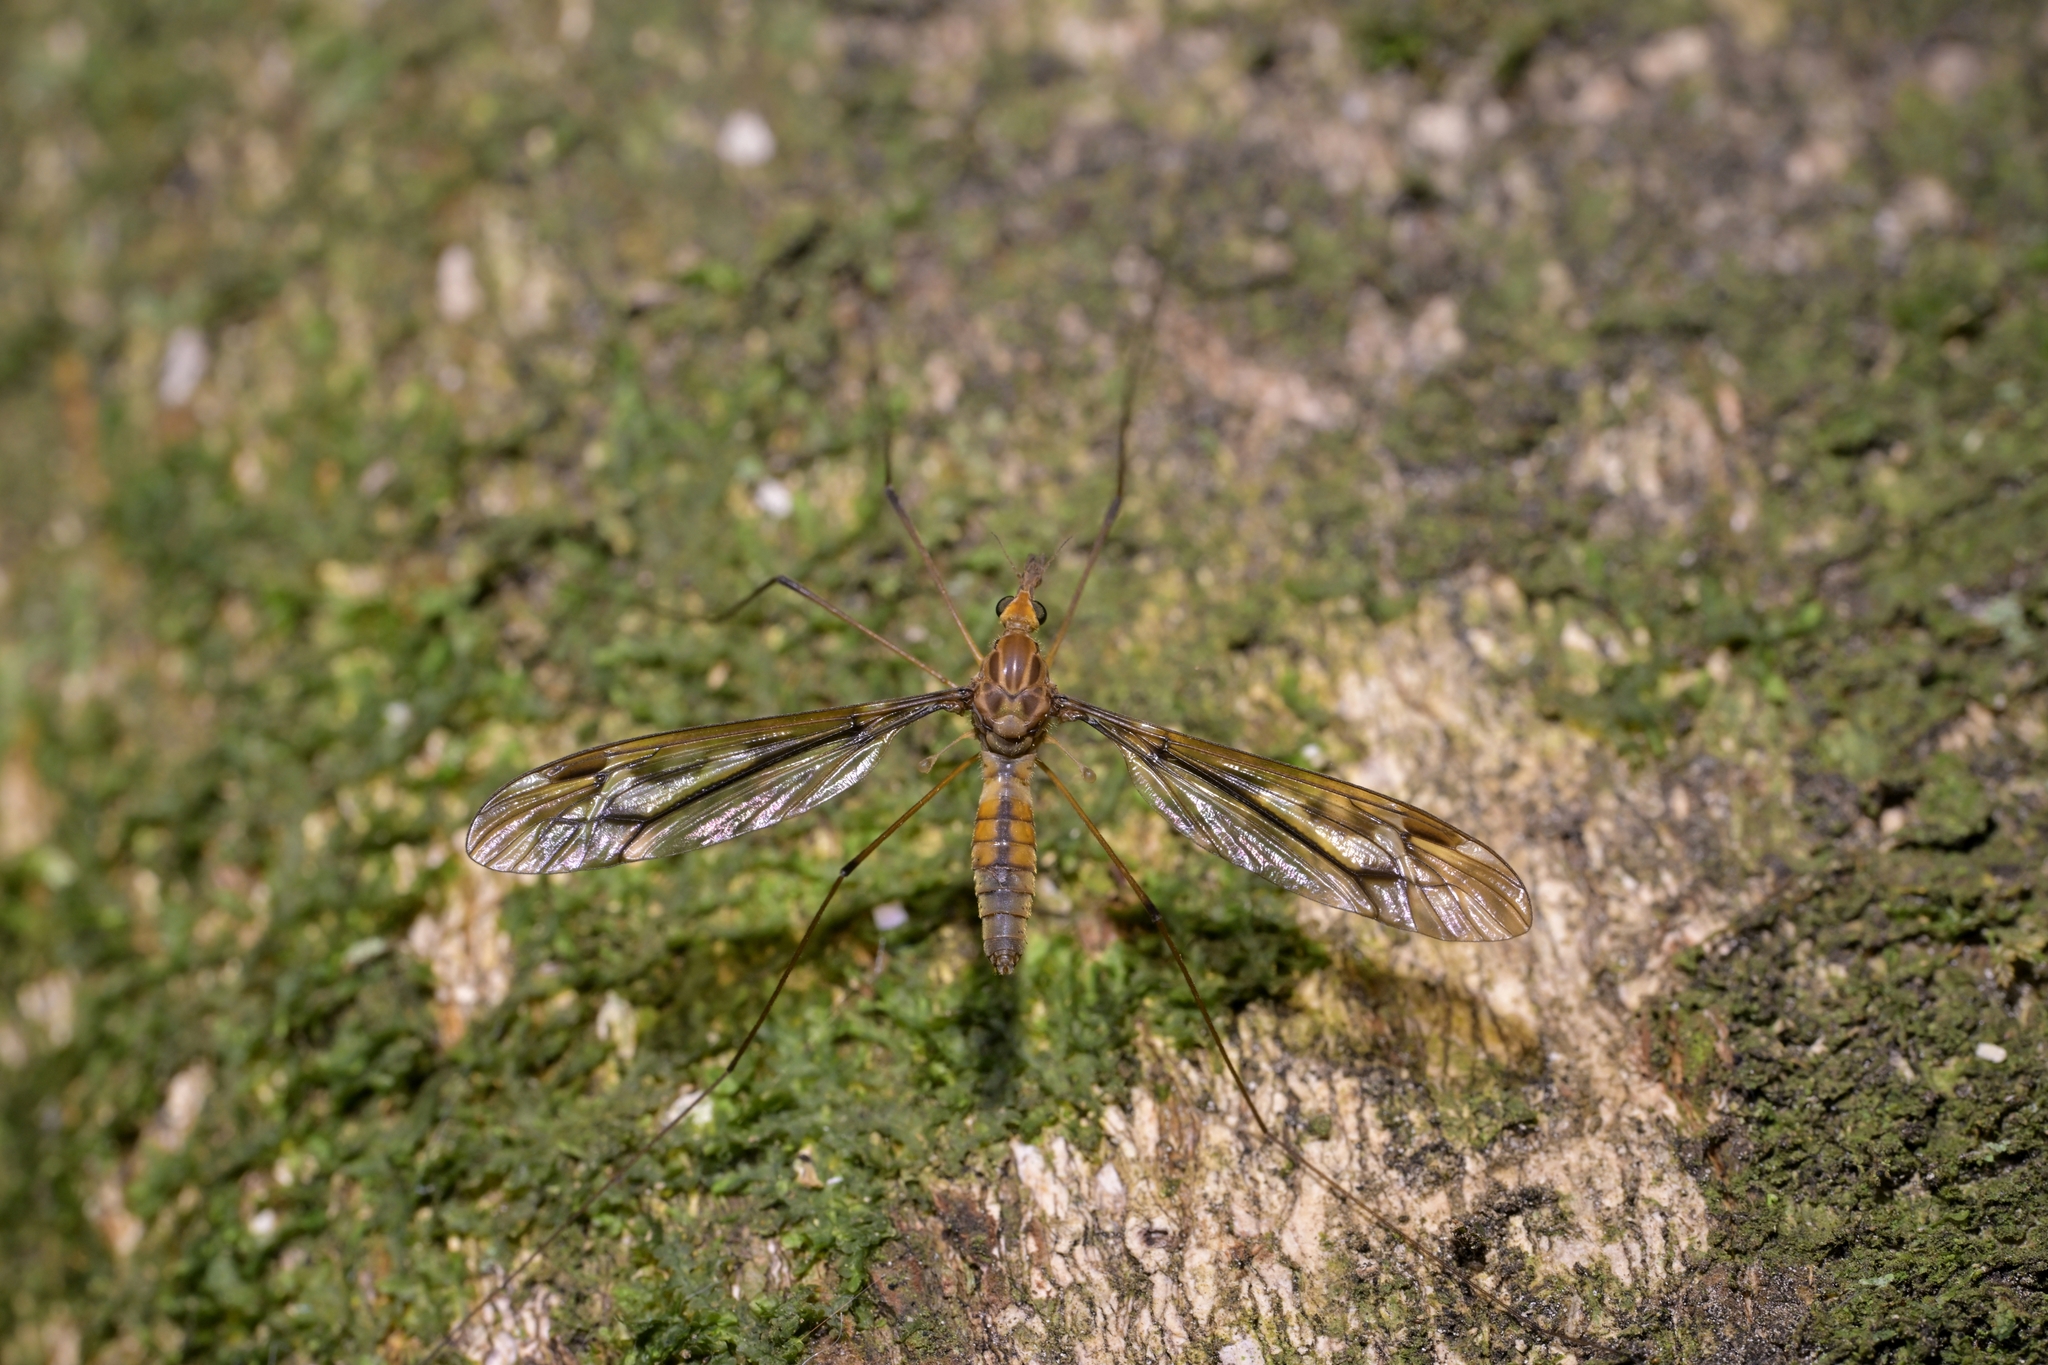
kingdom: Animalia
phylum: Arthropoda
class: Insecta
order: Diptera
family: Tipulidae
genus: Leptotarsus
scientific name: Leptotarsus huttoni
